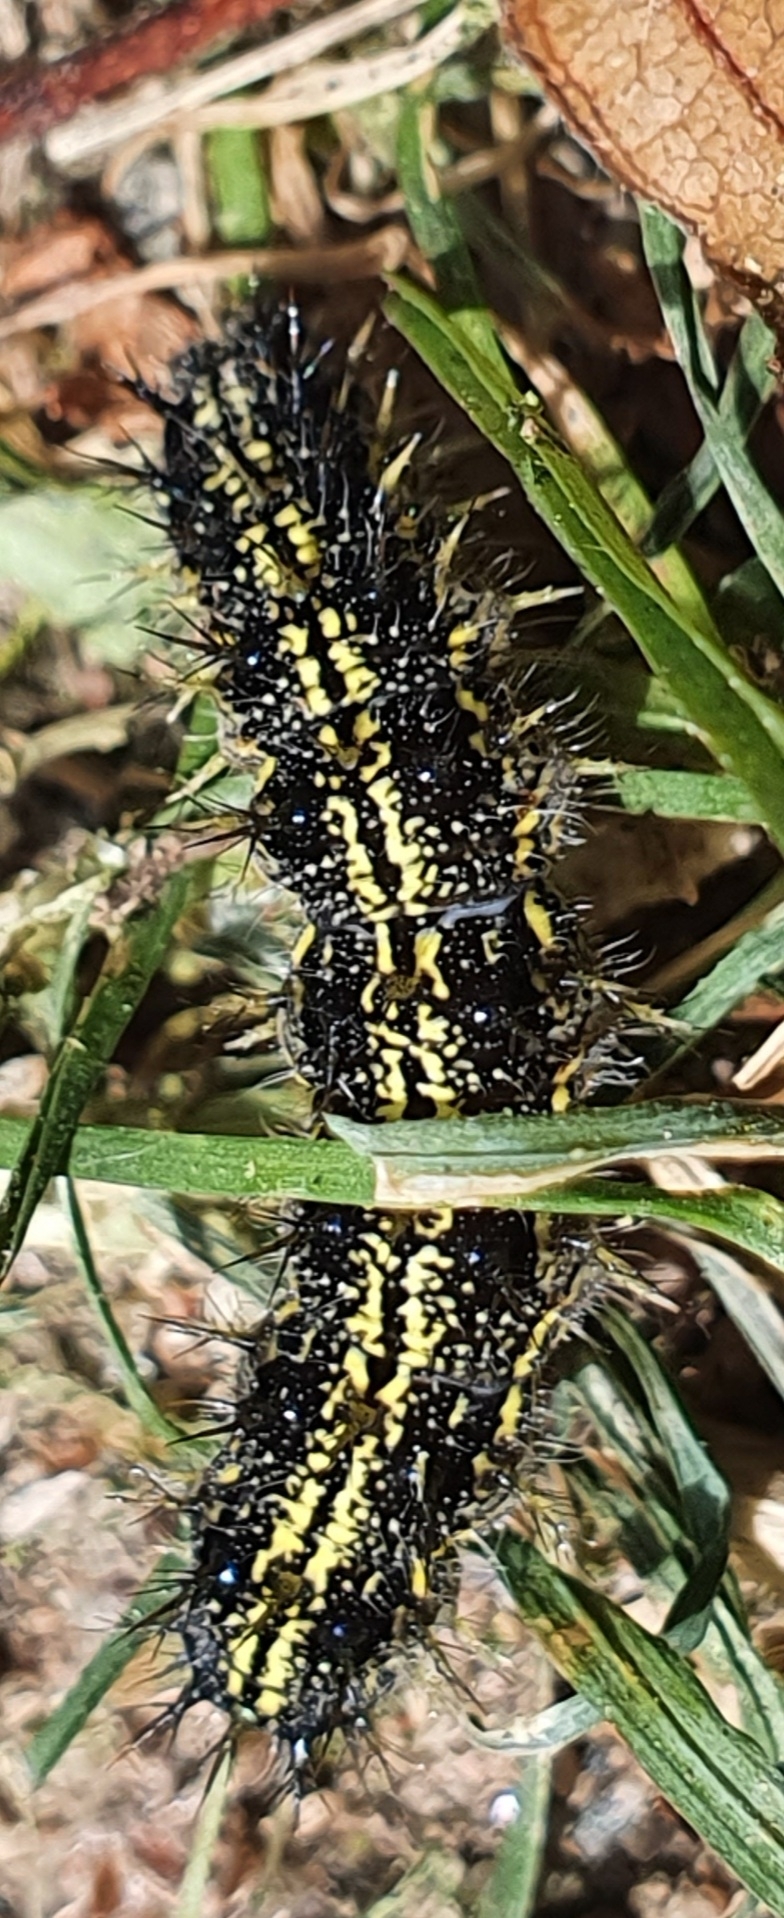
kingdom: Animalia
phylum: Arthropoda
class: Insecta
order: Lepidoptera
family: Nymphalidae
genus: Aglais
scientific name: Aglais urticae
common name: Small tortoiseshell
